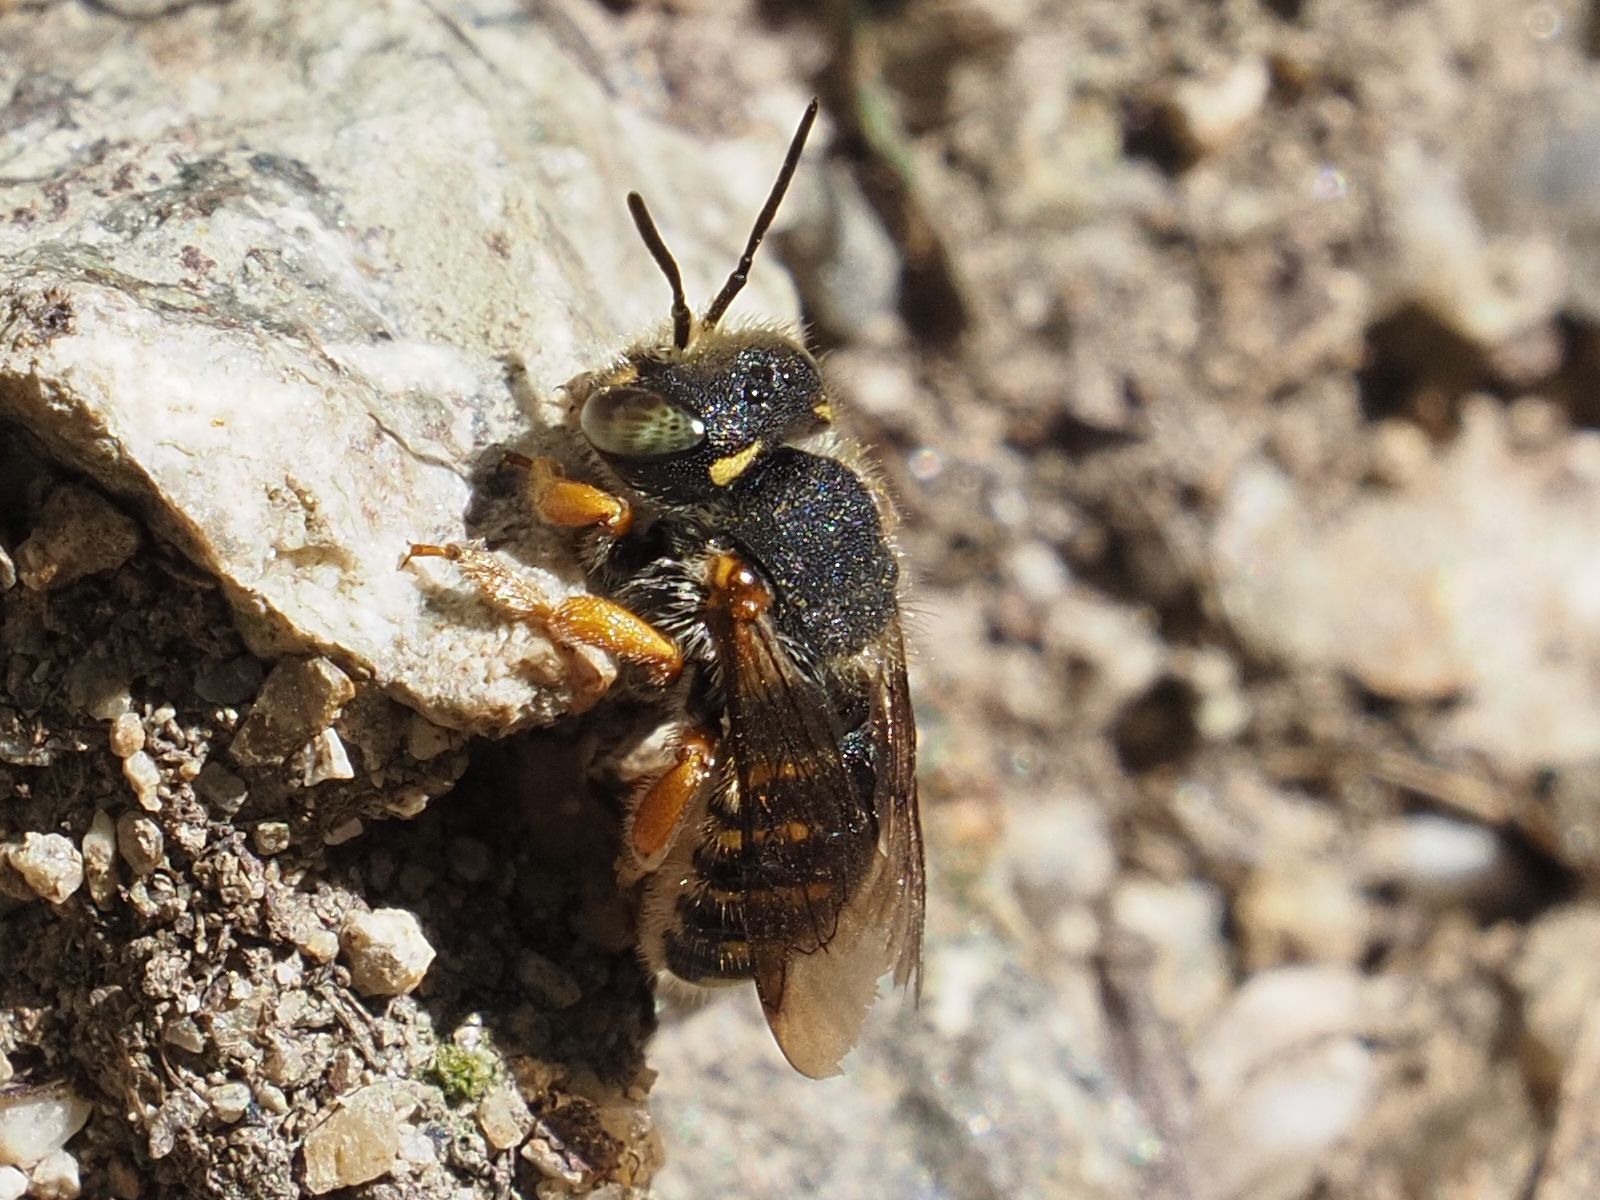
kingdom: Animalia
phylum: Arthropoda
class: Insecta
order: Hymenoptera
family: Megachilidae
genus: Anthidium
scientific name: Anthidium oblongatum
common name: Oblong wool carder bee
